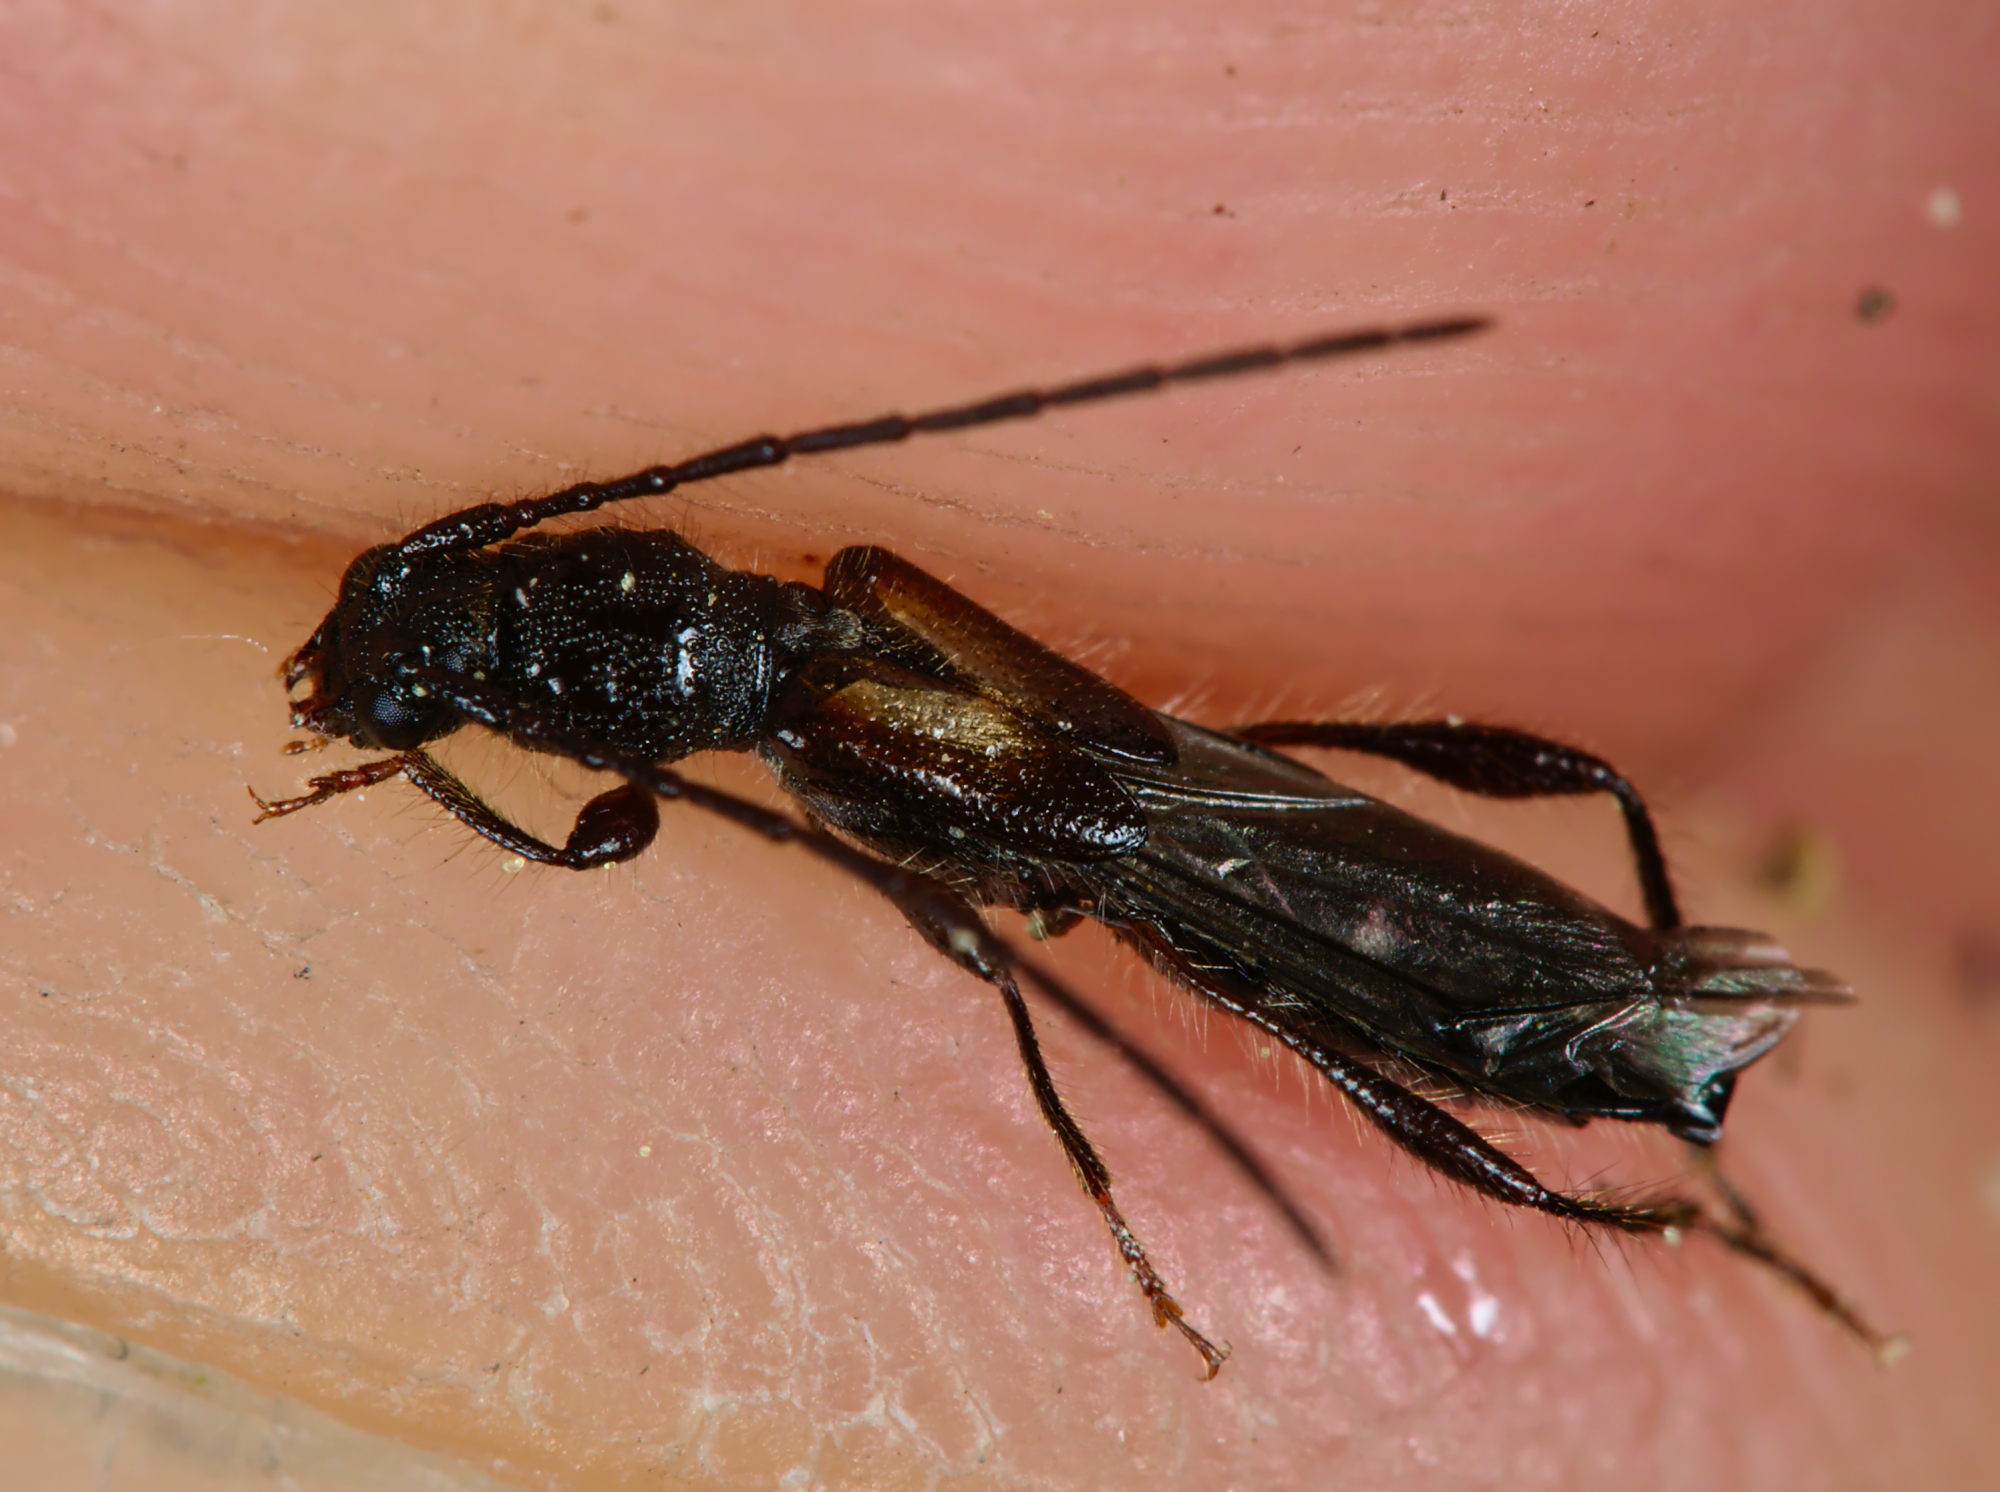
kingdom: Animalia
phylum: Arthropoda
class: Insecta
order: Coleoptera
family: Cerambycidae
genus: Molorchus
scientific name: Molorchus umbellatarum
